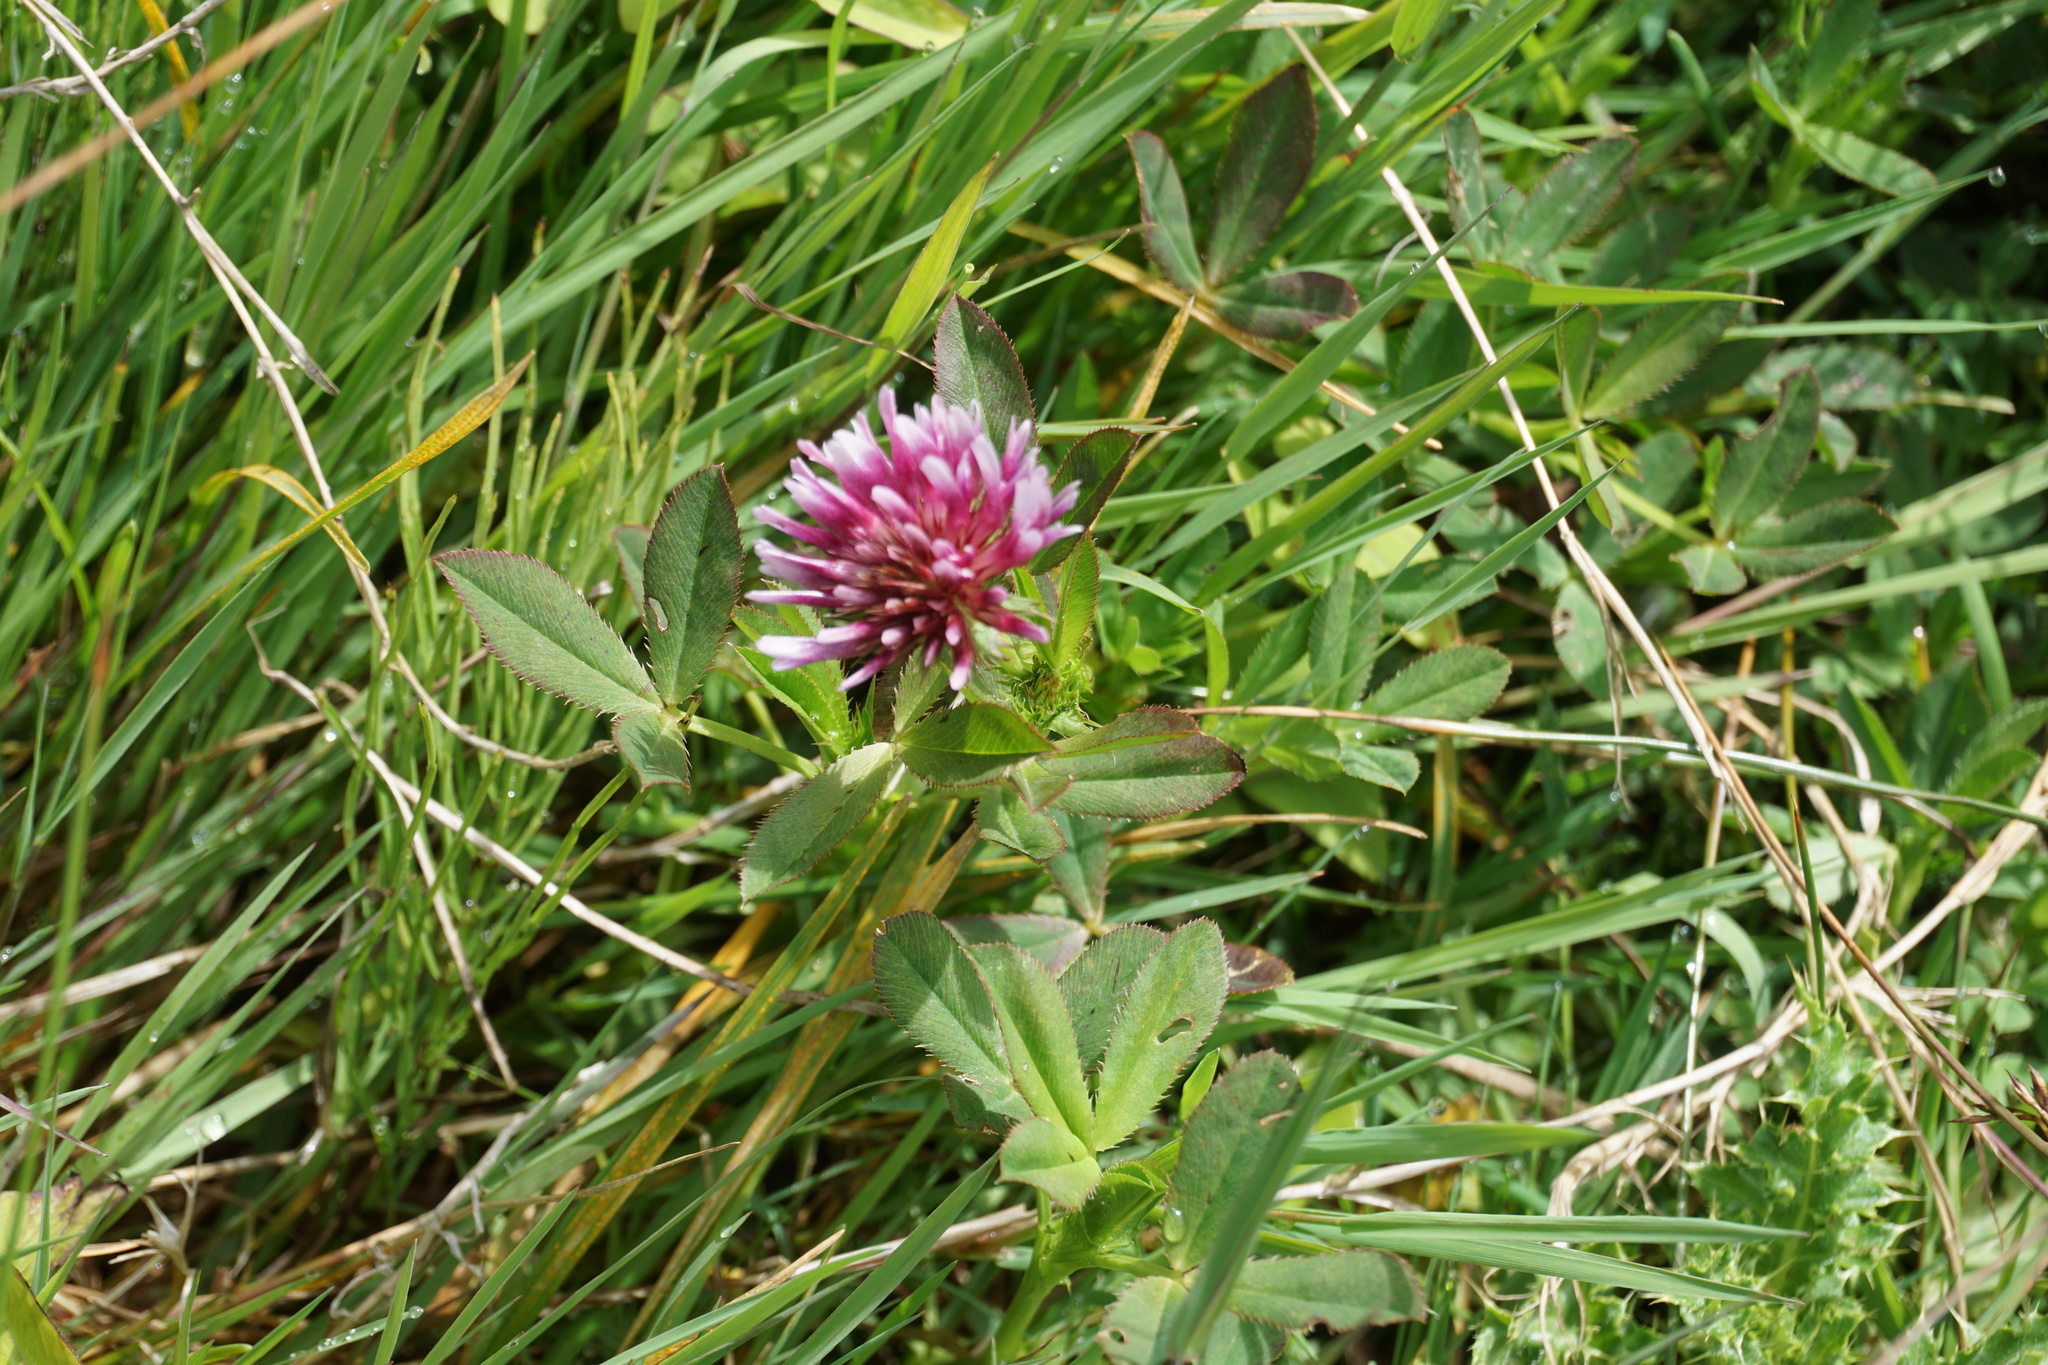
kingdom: Plantae
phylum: Tracheophyta
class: Magnoliopsida
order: Fabales
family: Fabaceae
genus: Trifolium
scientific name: Trifolium wormskioldii
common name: Springbank clover
